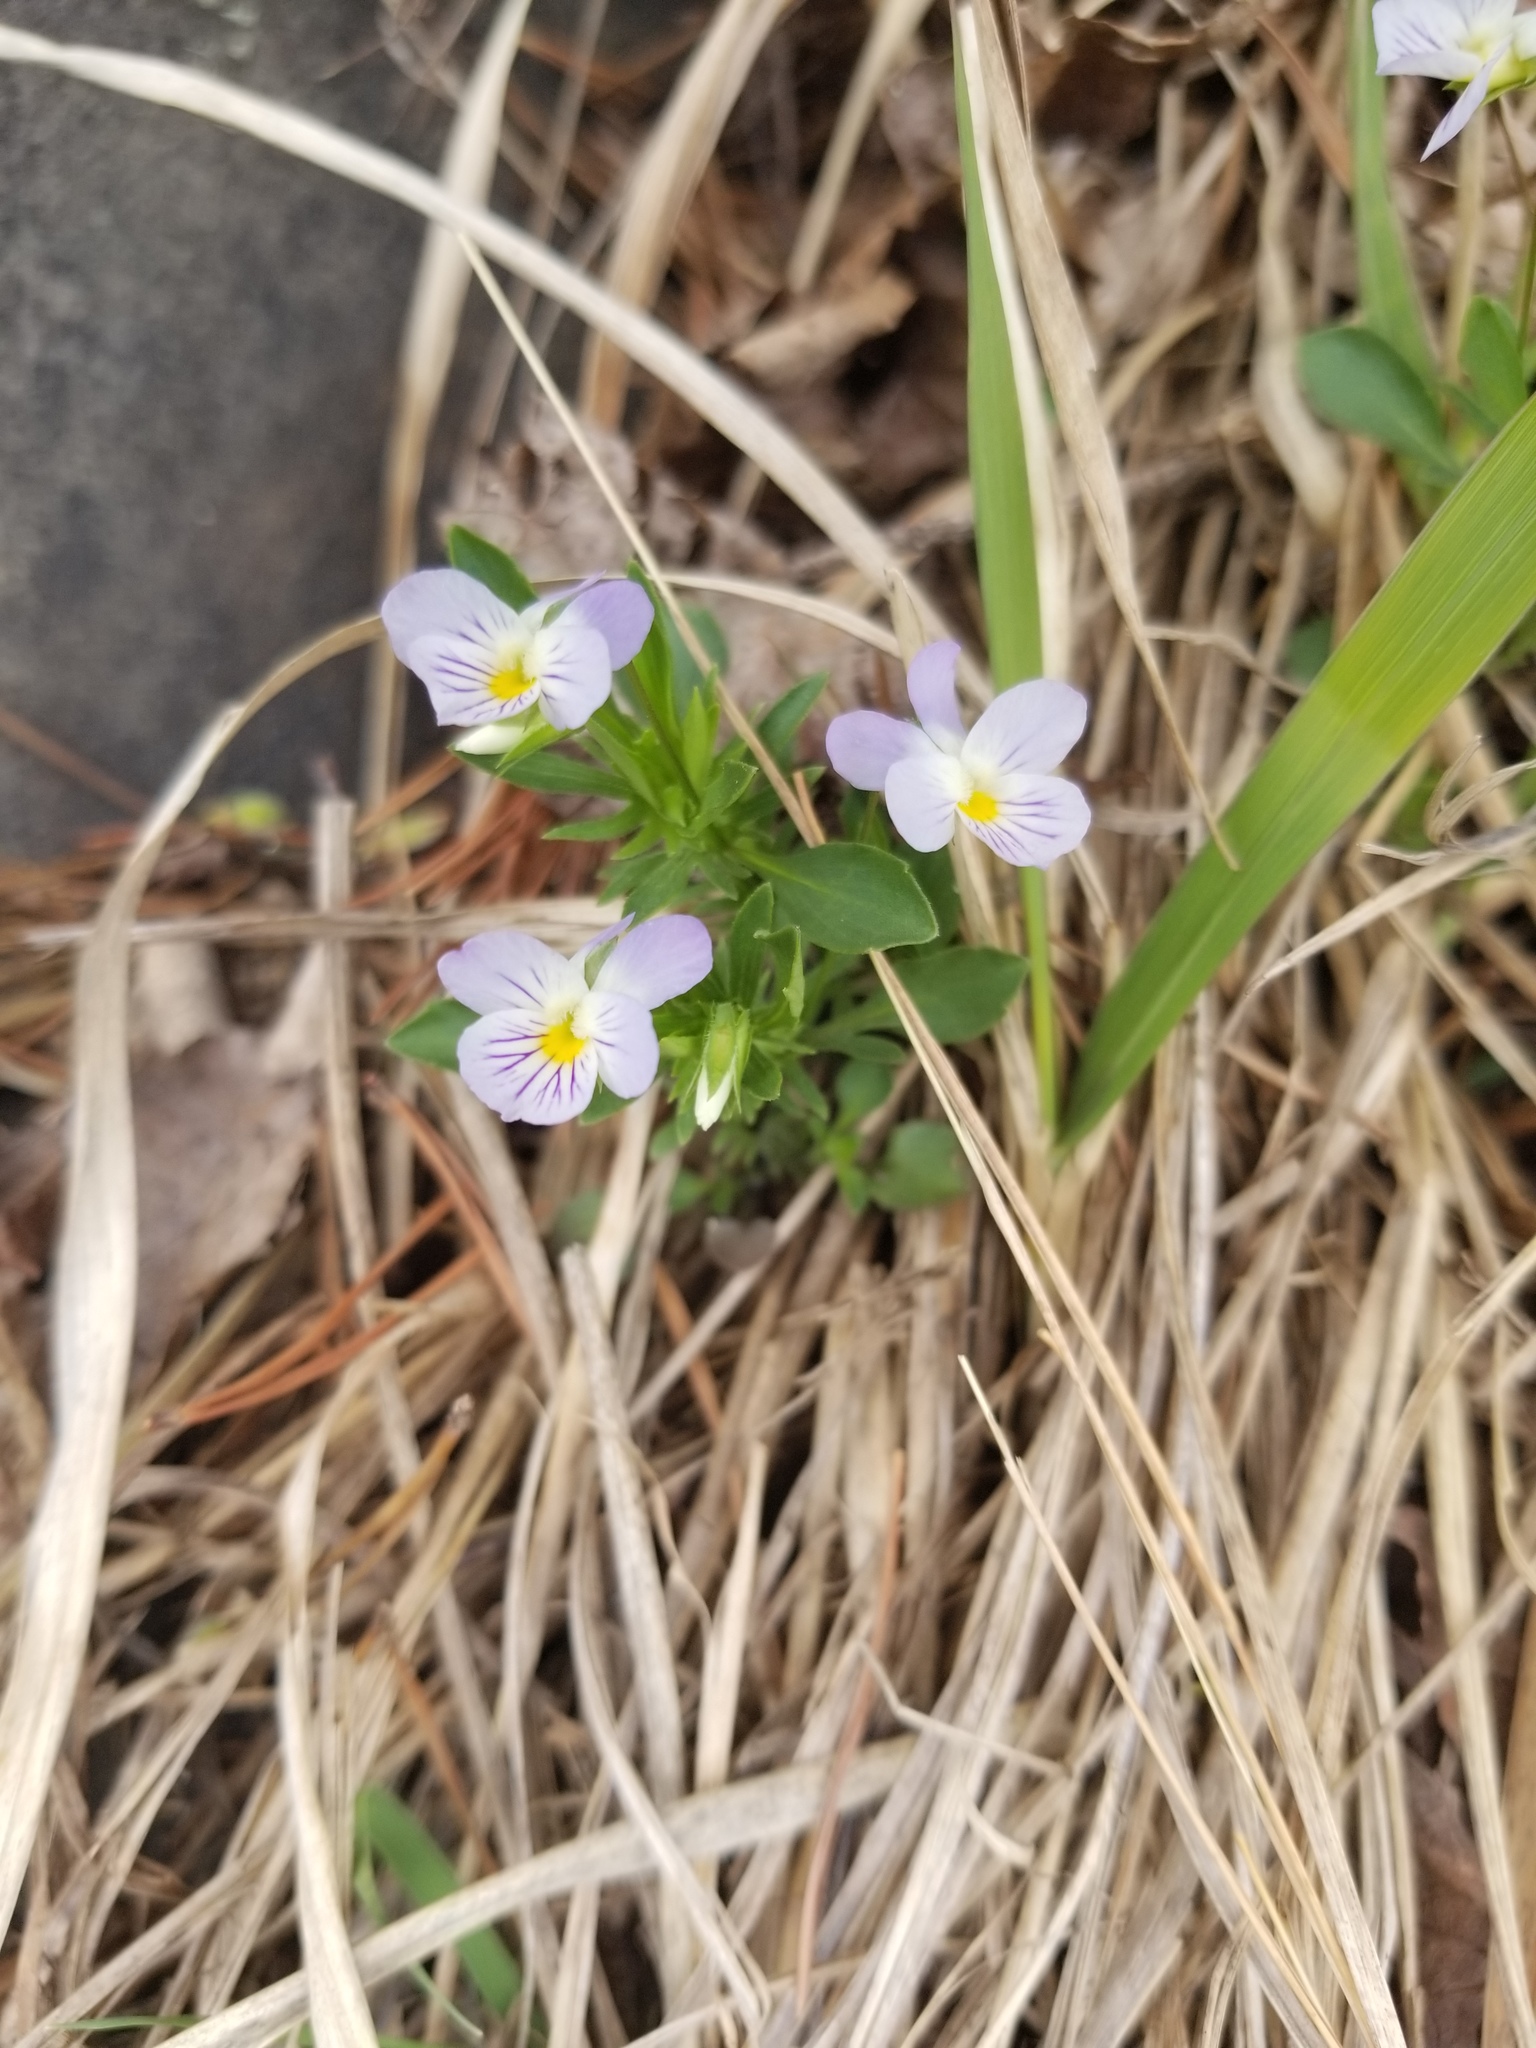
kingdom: Plantae
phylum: Tracheophyta
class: Magnoliopsida
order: Malpighiales
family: Violaceae
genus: Viola
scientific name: Viola rafinesquei
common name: American field pansy
